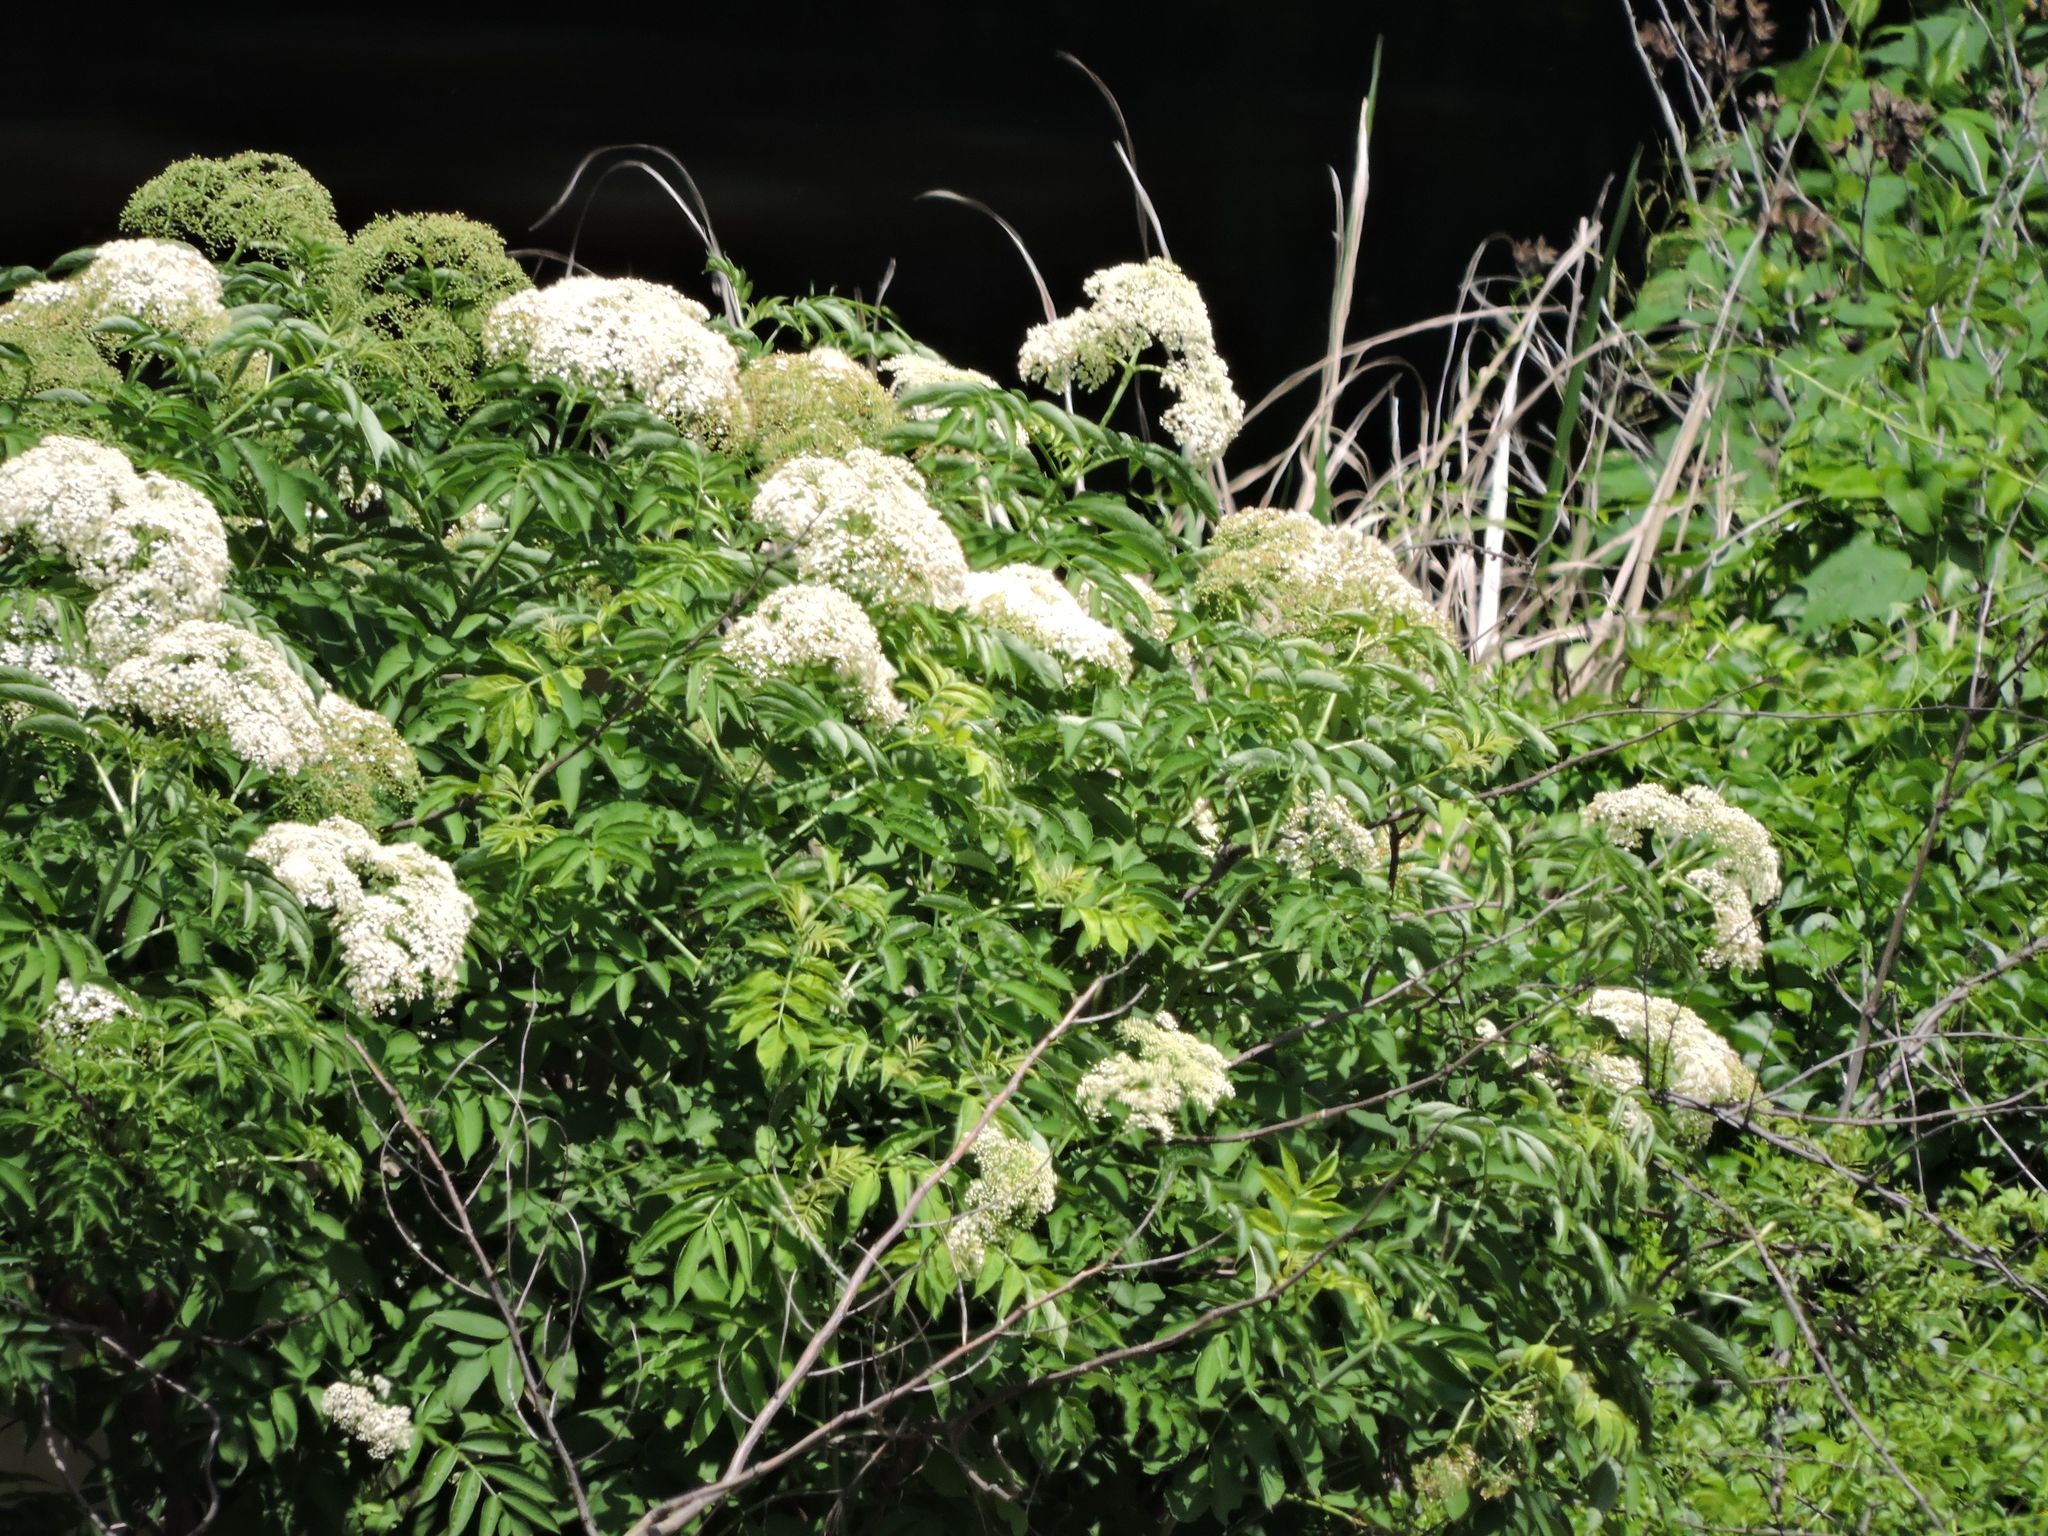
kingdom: Plantae
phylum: Tracheophyta
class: Magnoliopsida
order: Dipsacales
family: Viburnaceae
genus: Sambucus
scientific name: Sambucus canadensis
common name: American elder
